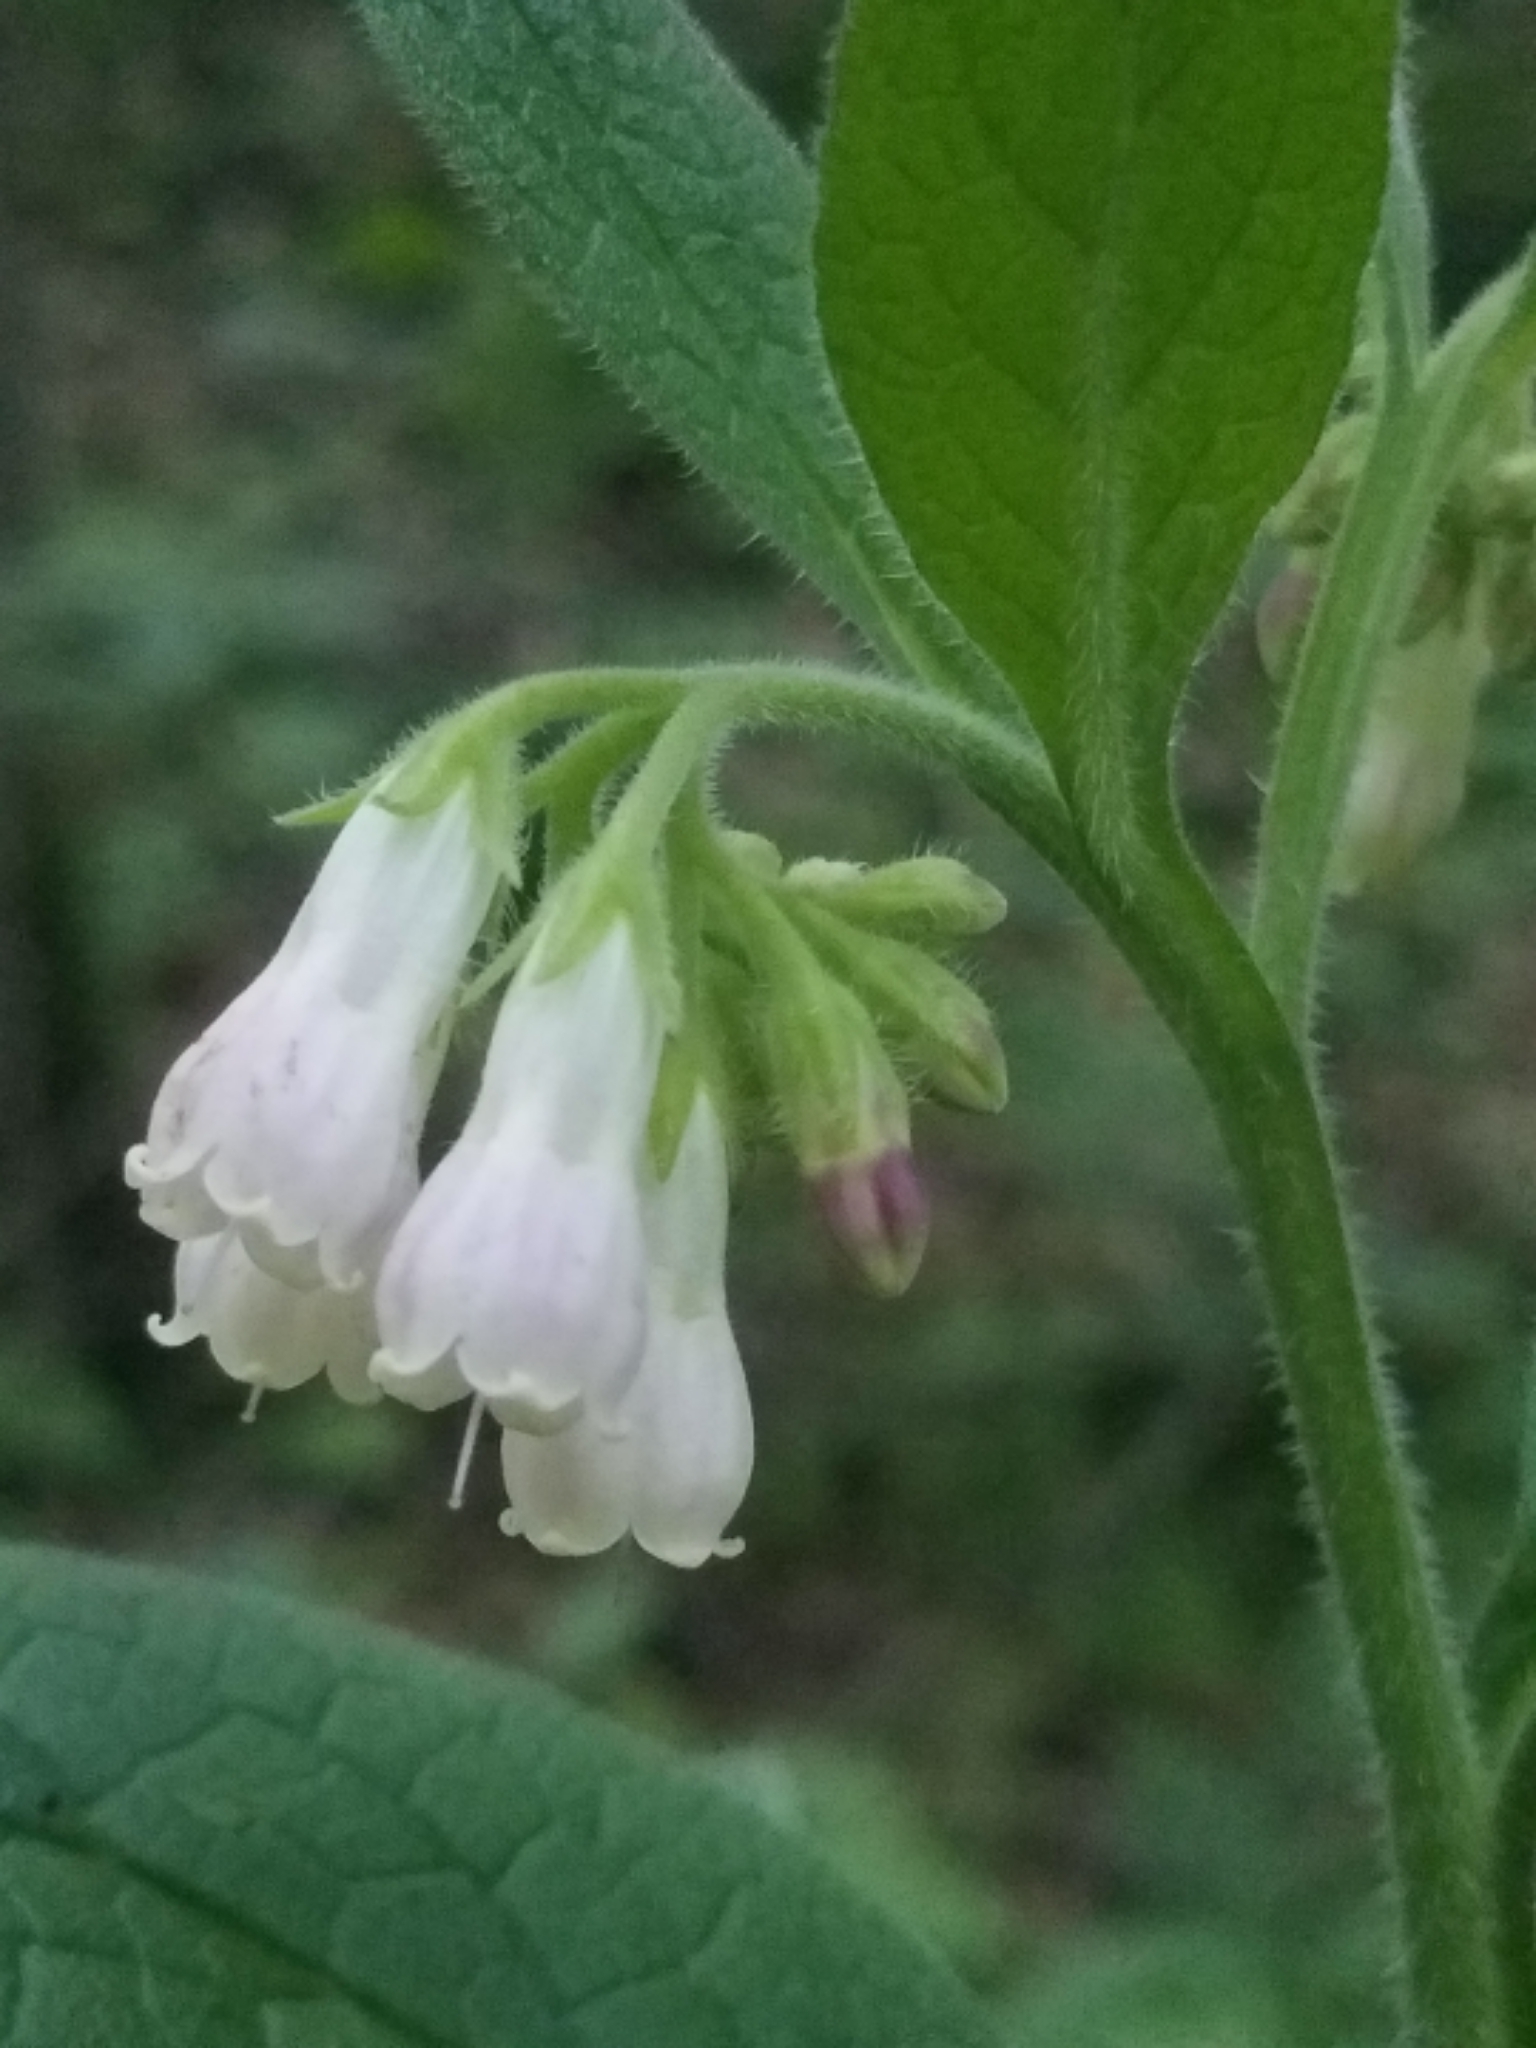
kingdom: Plantae
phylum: Tracheophyta
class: Magnoliopsida
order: Boraginales
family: Boraginaceae
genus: Symphytum
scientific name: Symphytum officinale
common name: Common comfrey
